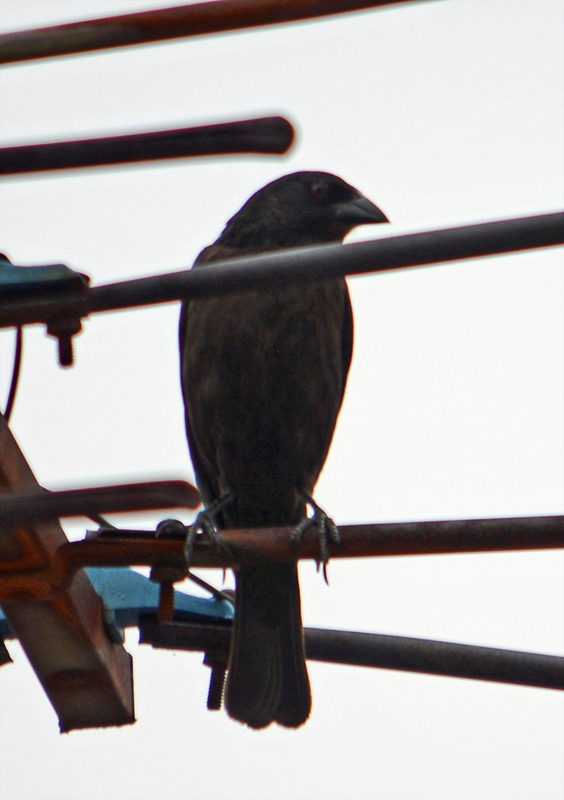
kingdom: Animalia
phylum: Chordata
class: Aves
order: Passeriformes
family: Icteridae
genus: Molothrus
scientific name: Molothrus aeneus
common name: Bronzed cowbird
